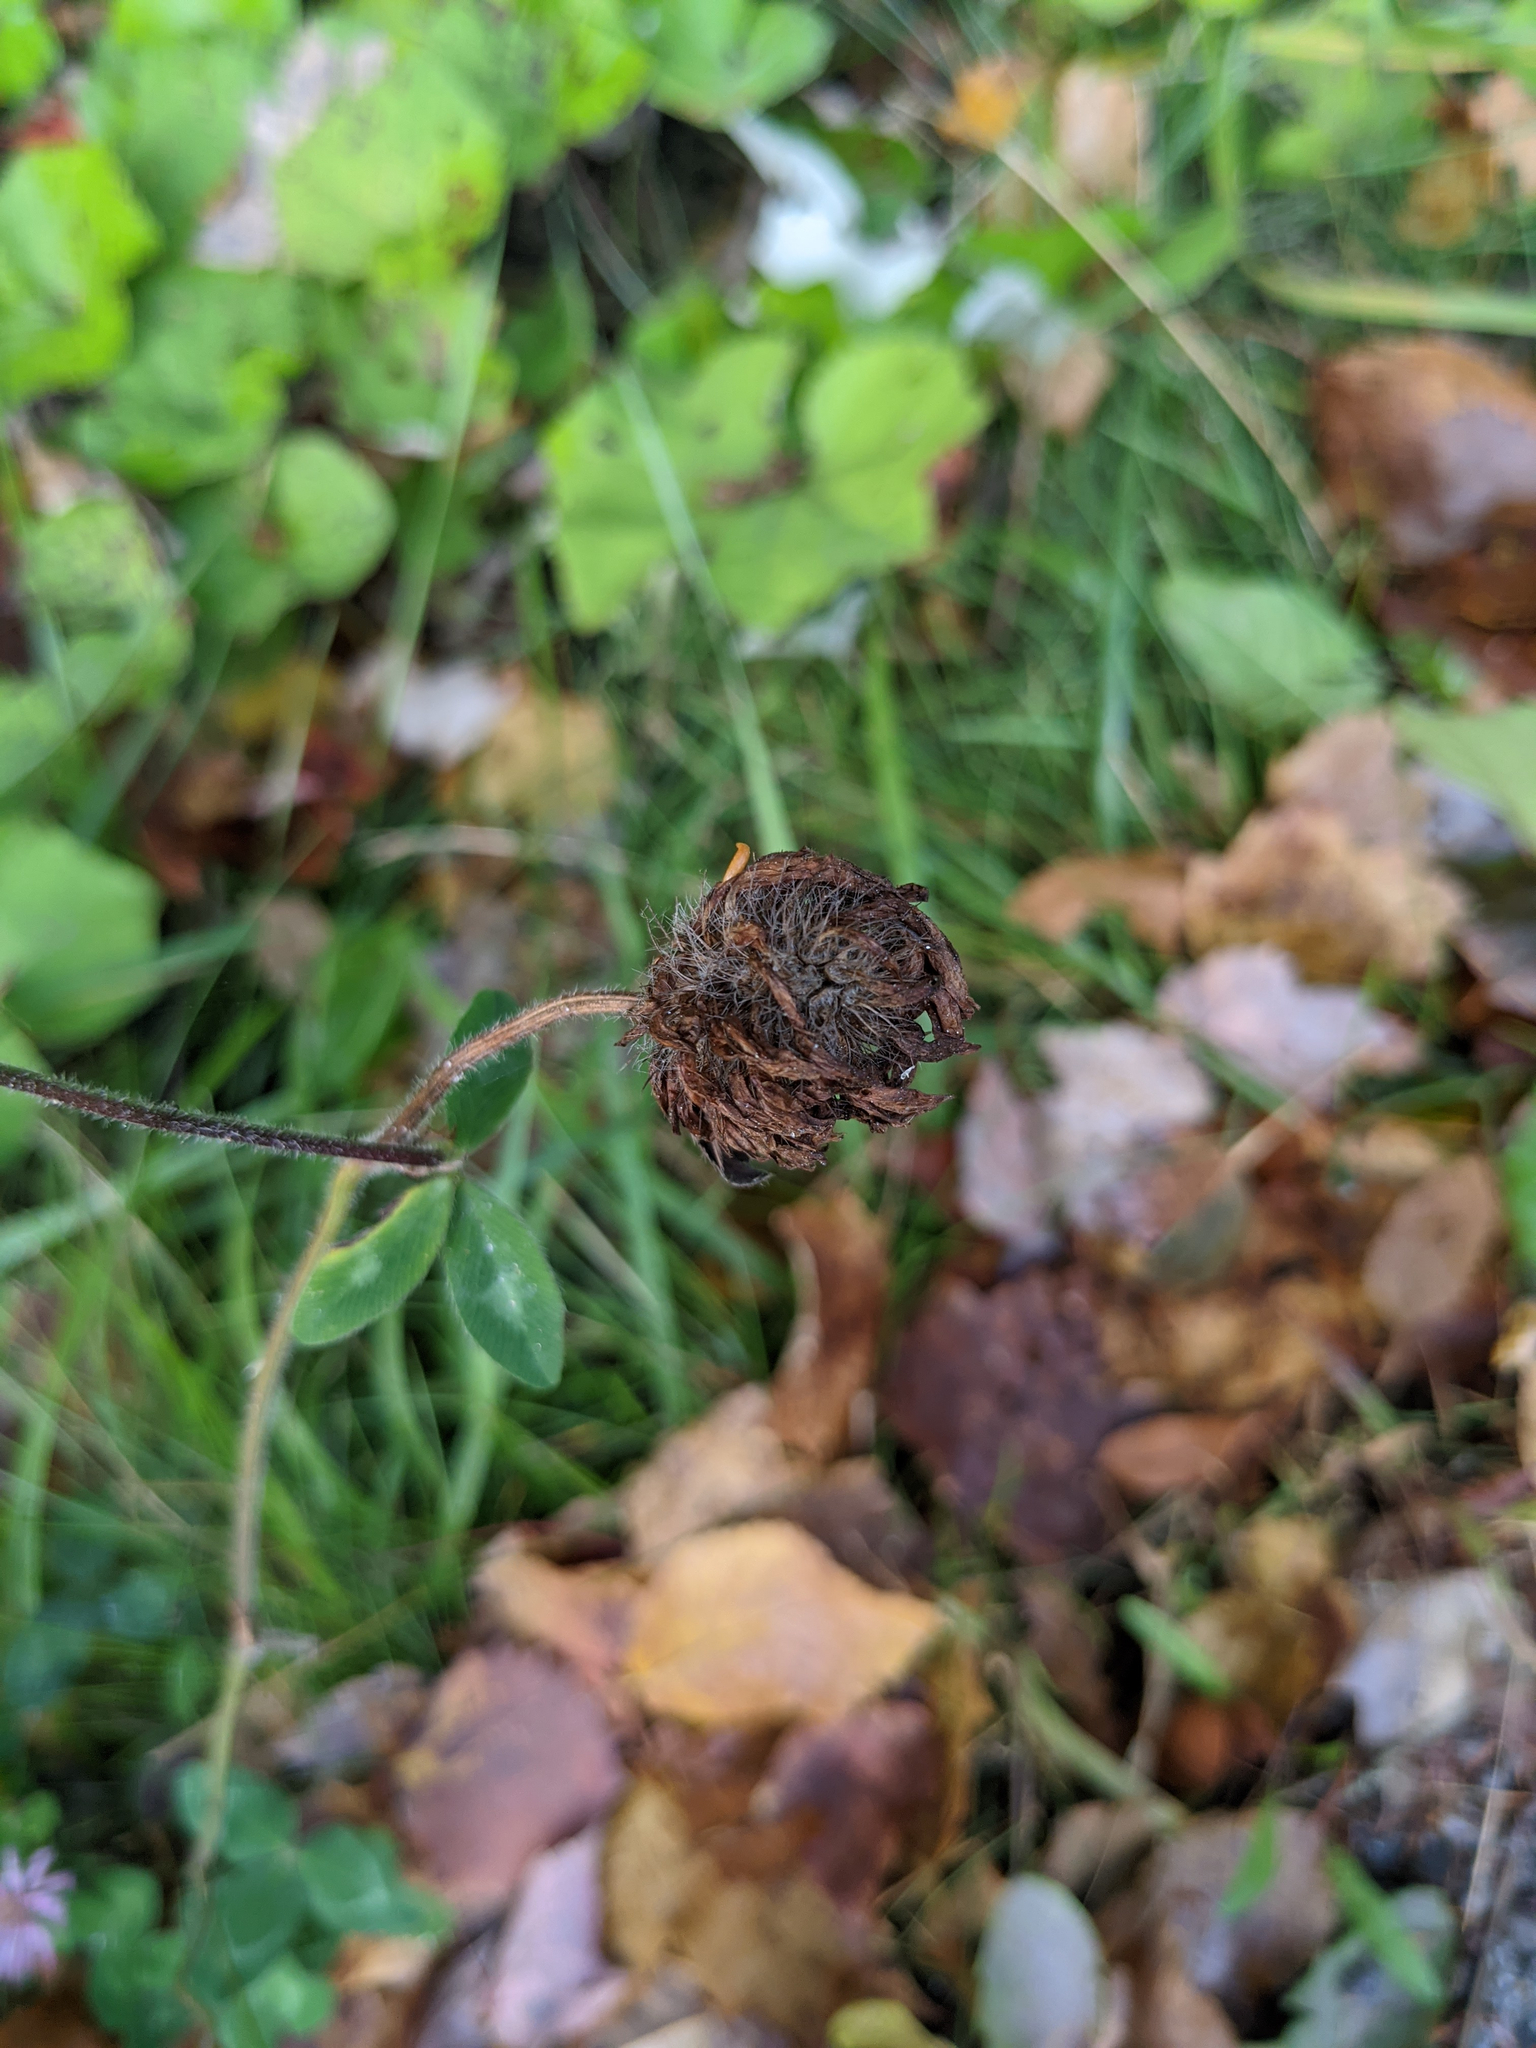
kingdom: Plantae
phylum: Tracheophyta
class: Magnoliopsida
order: Fabales
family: Fabaceae
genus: Trifolium
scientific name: Trifolium pratense
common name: Red clover
